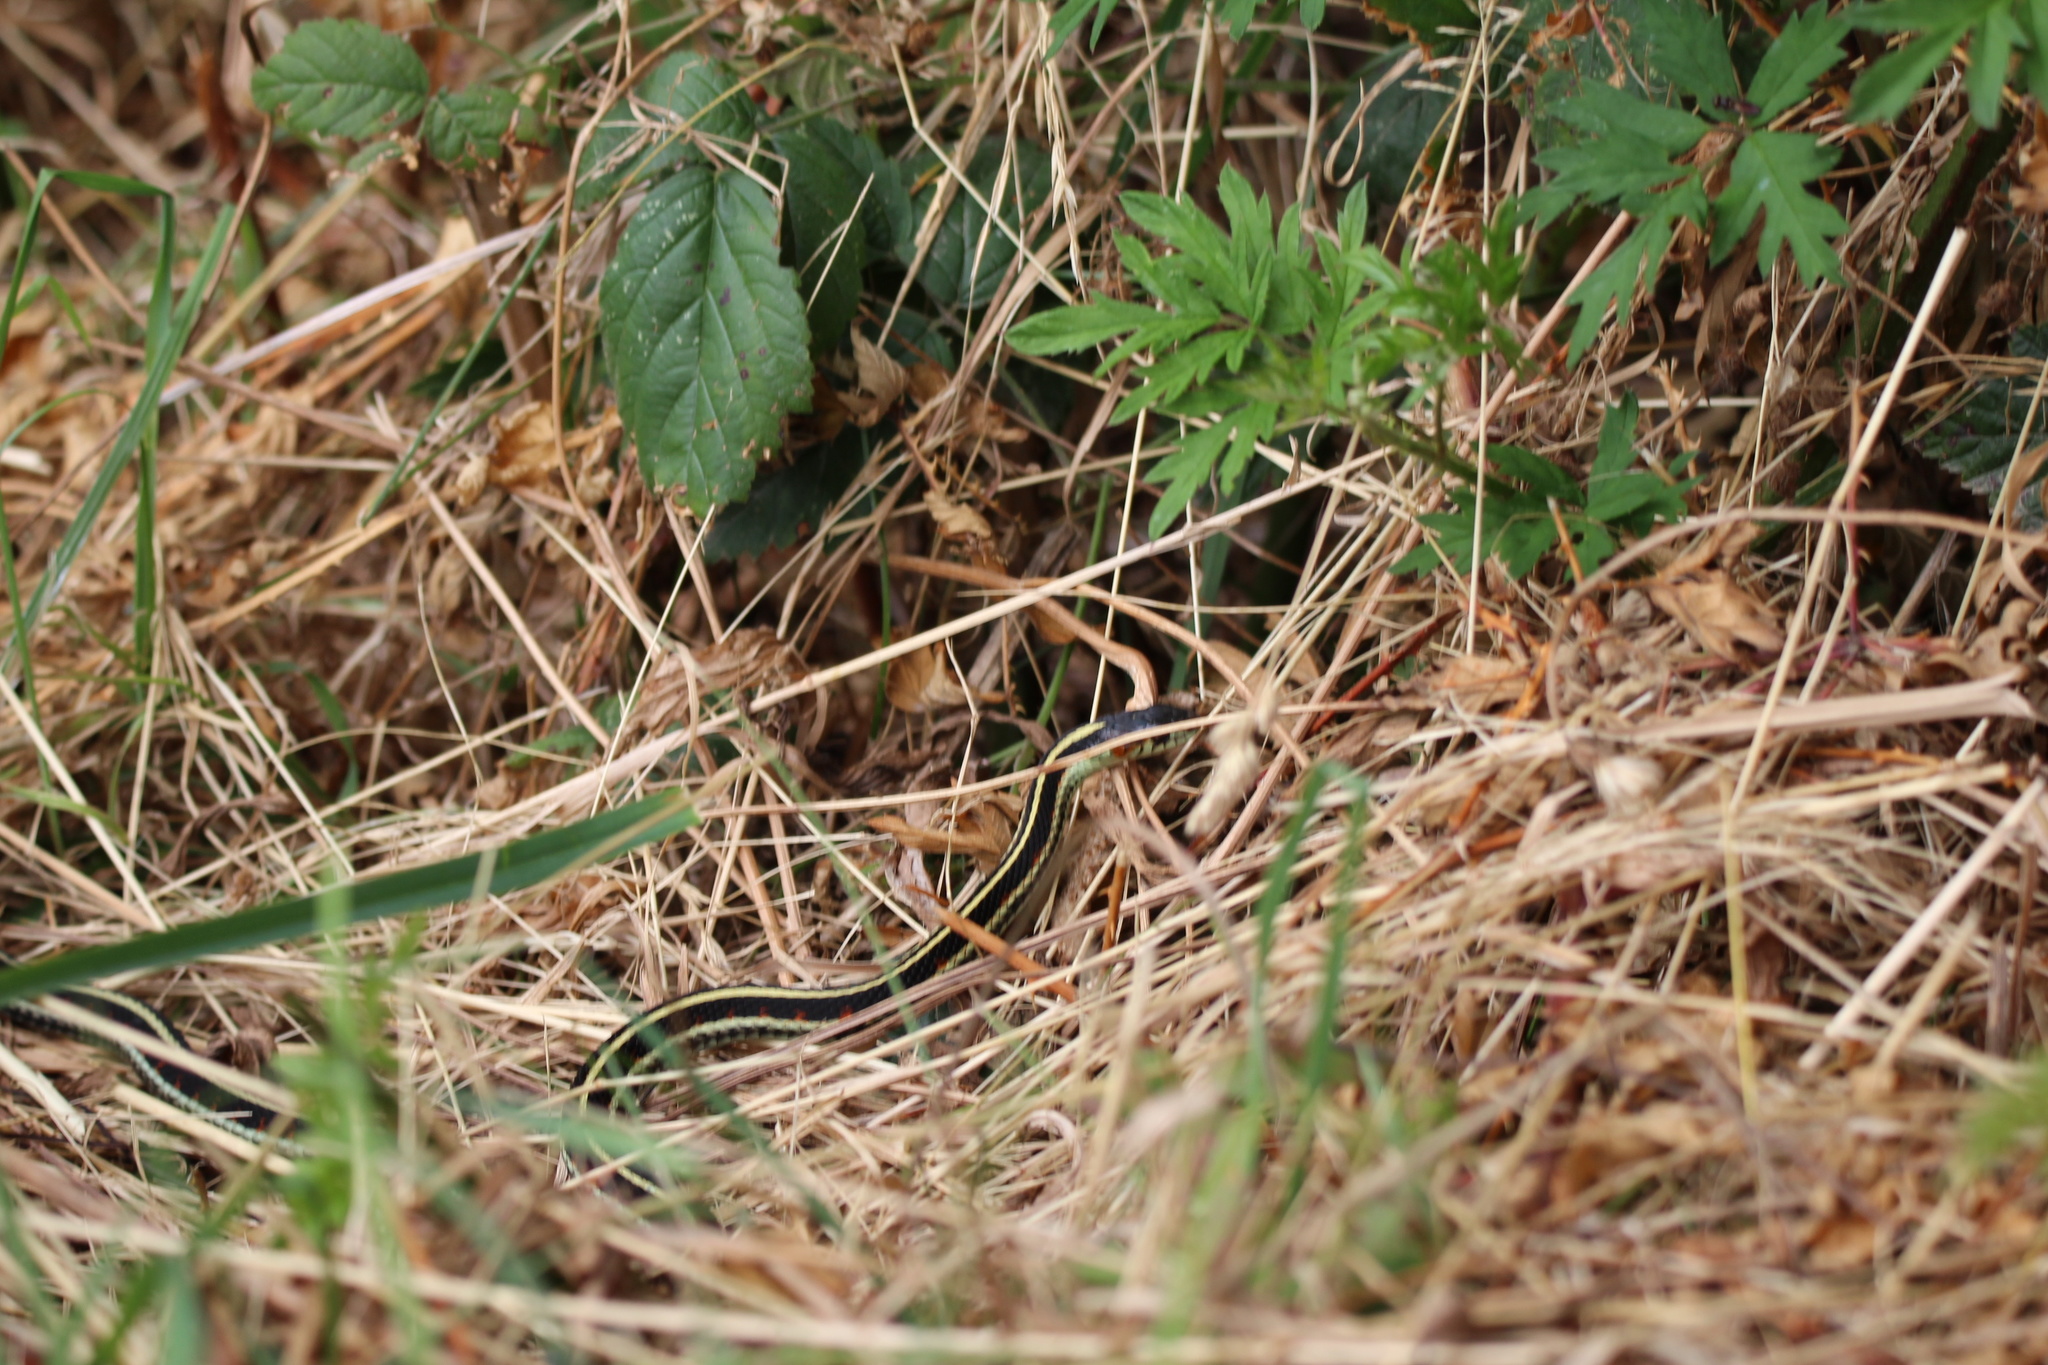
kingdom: Animalia
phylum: Chordata
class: Squamata
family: Colubridae
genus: Thamnophis
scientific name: Thamnophis sirtalis
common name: Common garter snake
